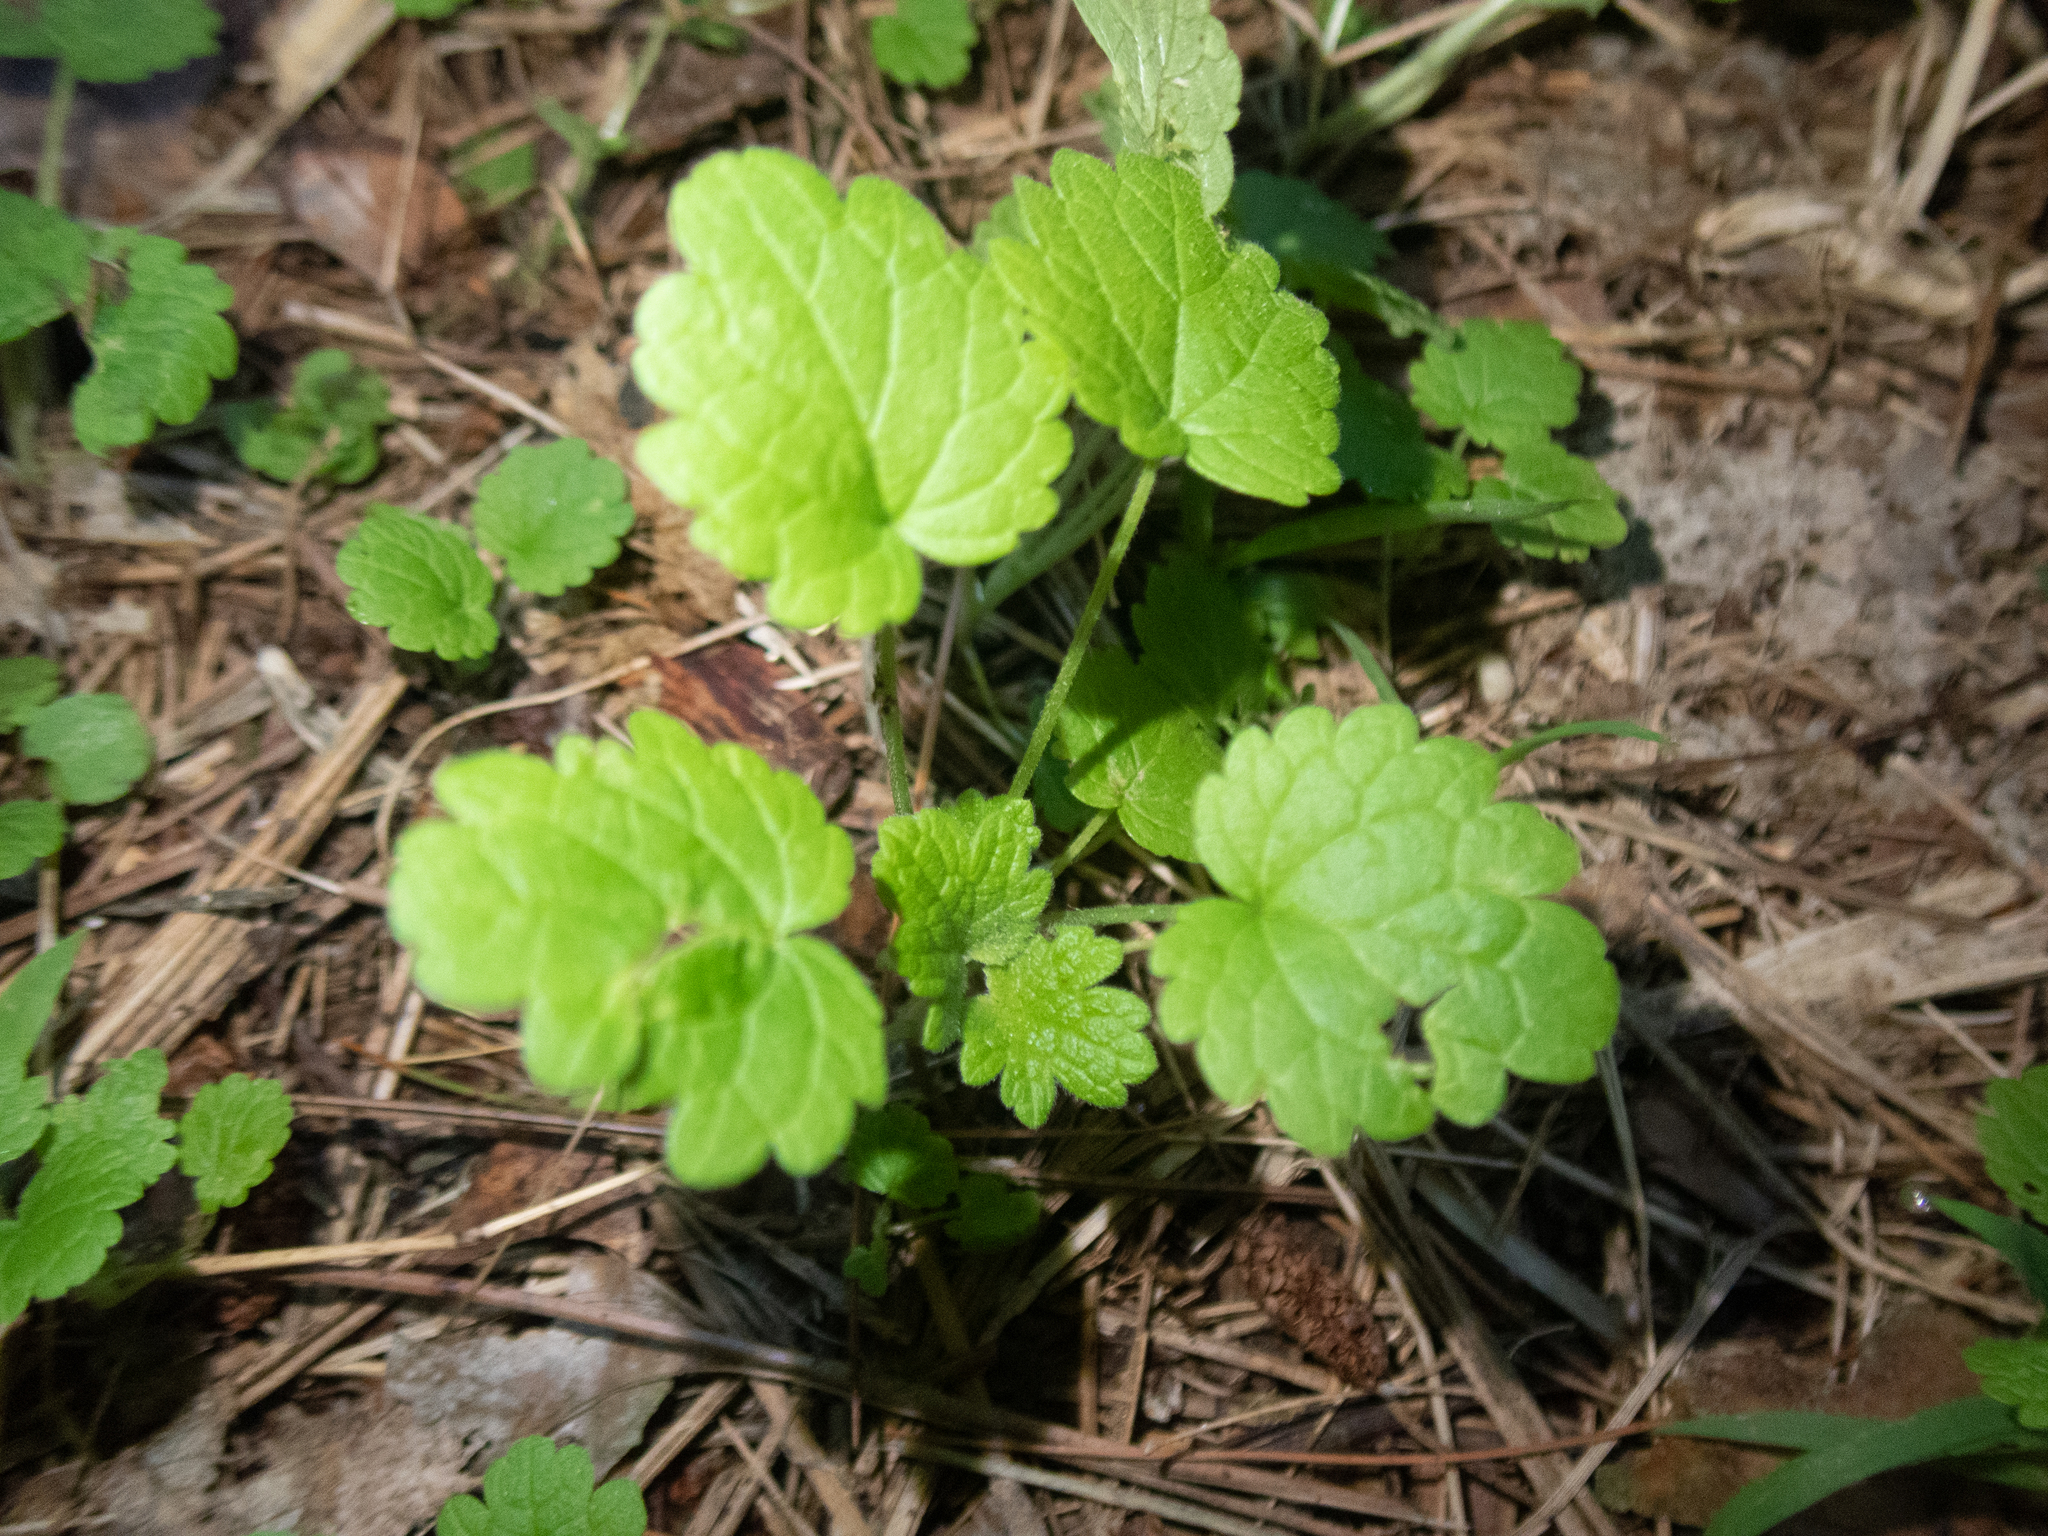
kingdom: Plantae
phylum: Tracheophyta
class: Magnoliopsida
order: Lamiales
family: Lamiaceae
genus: Glechoma
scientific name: Glechoma hederacea
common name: Ground ivy
